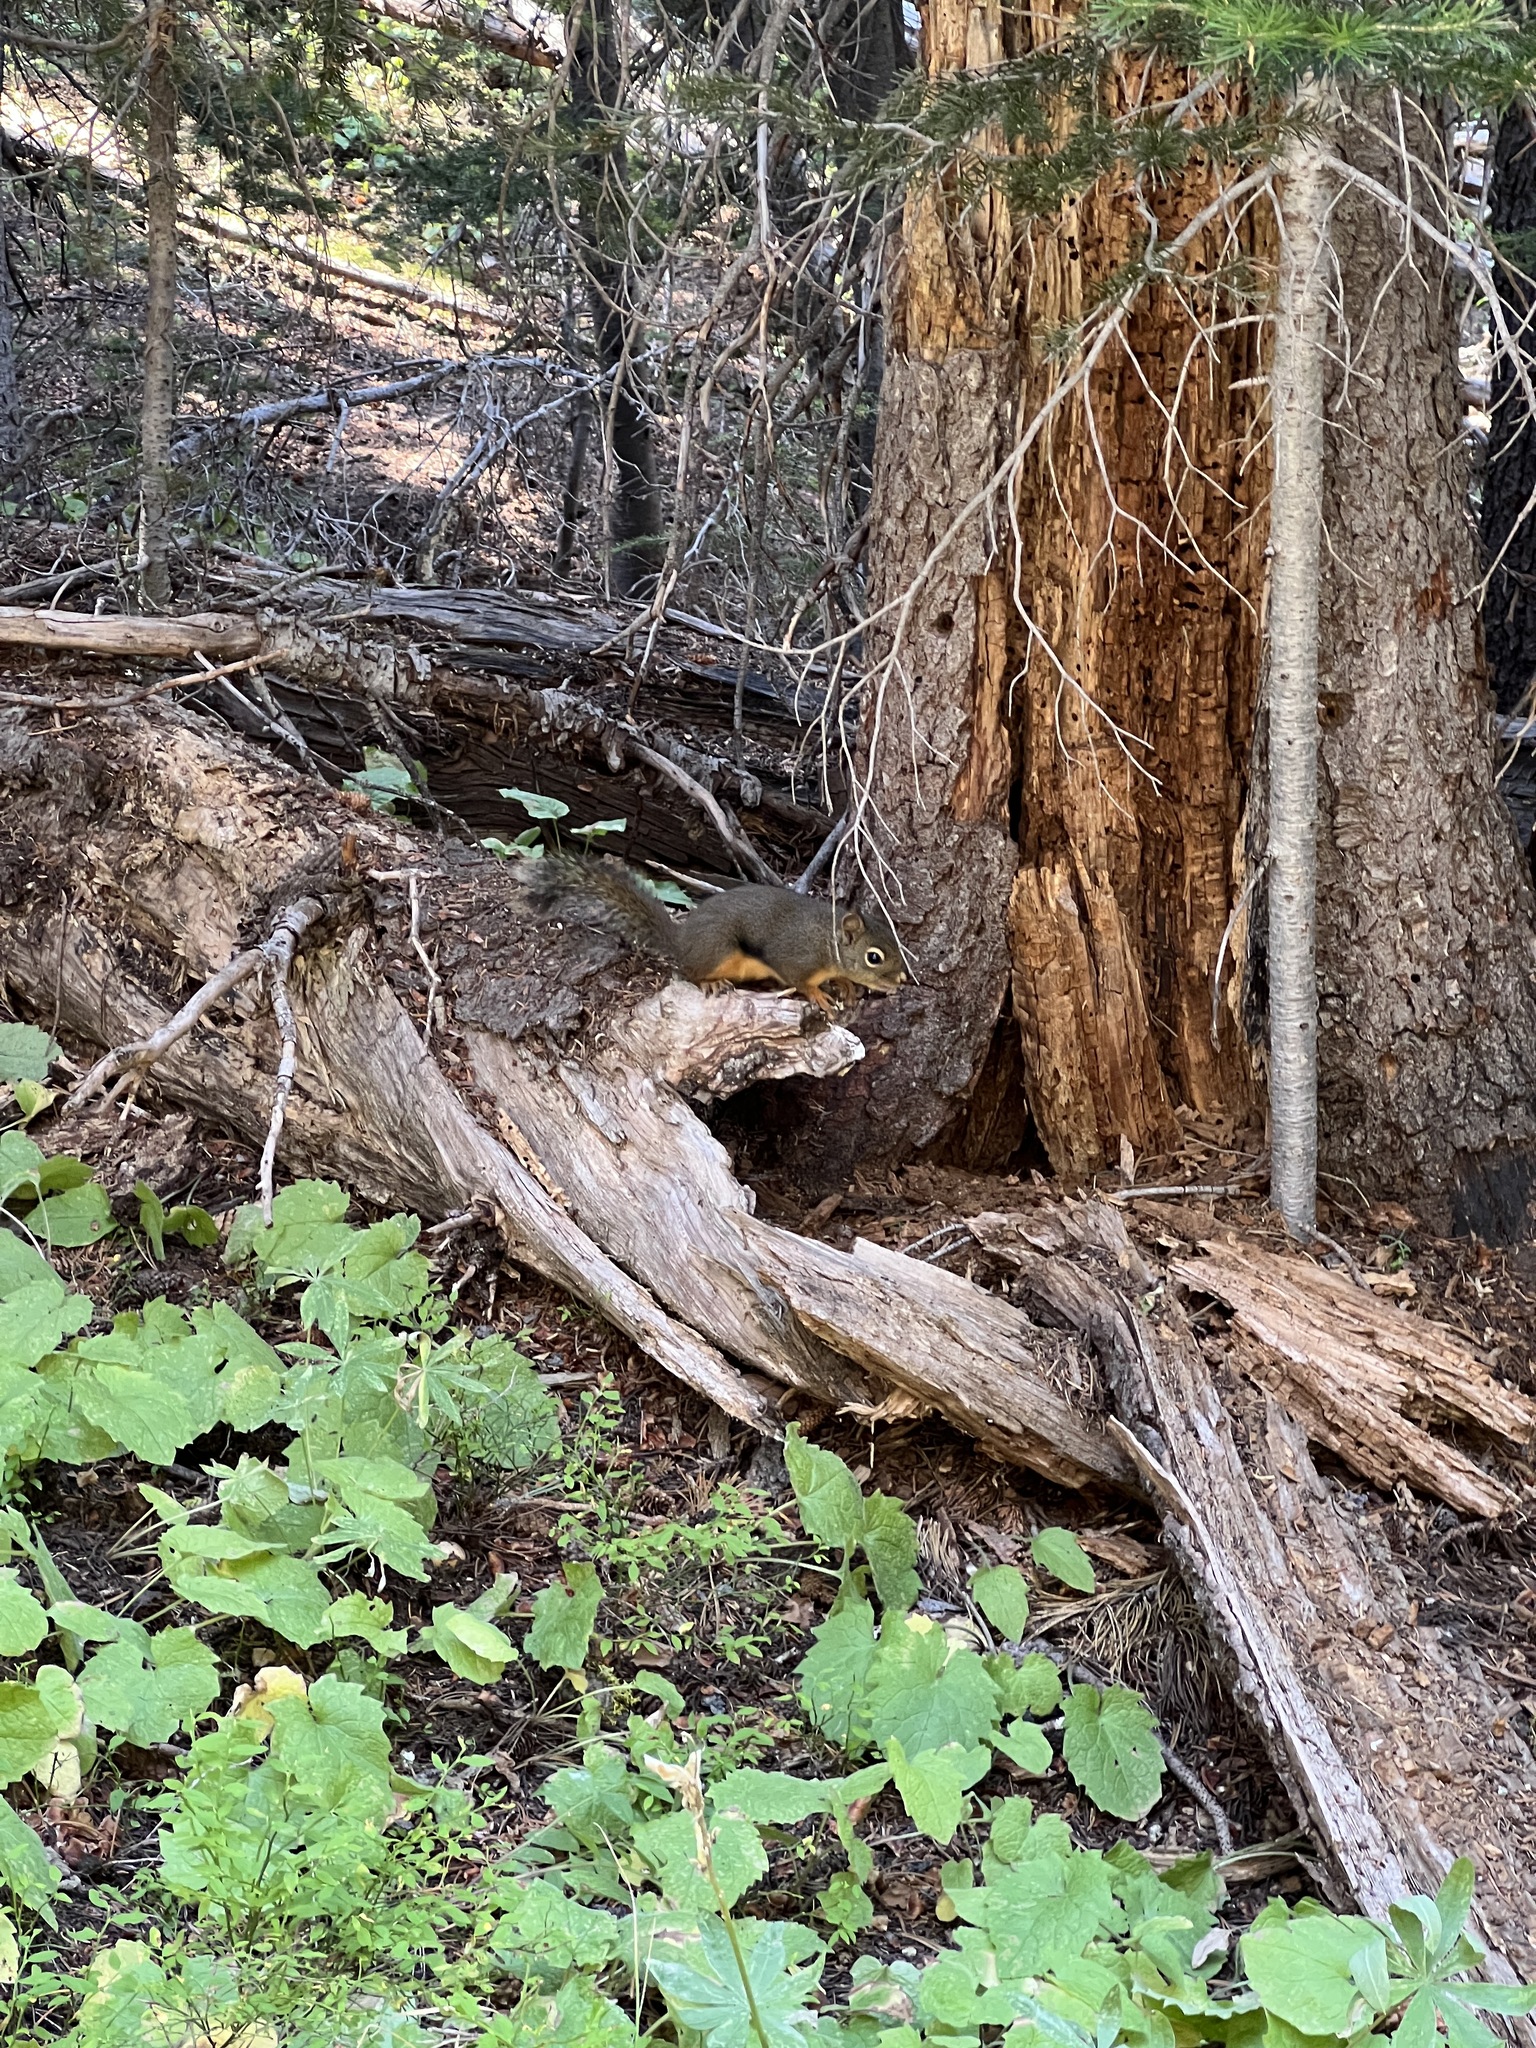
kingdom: Animalia
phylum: Chordata
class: Mammalia
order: Rodentia
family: Sciuridae
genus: Tamiasciurus
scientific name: Tamiasciurus douglasii
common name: Douglas's squirrel
